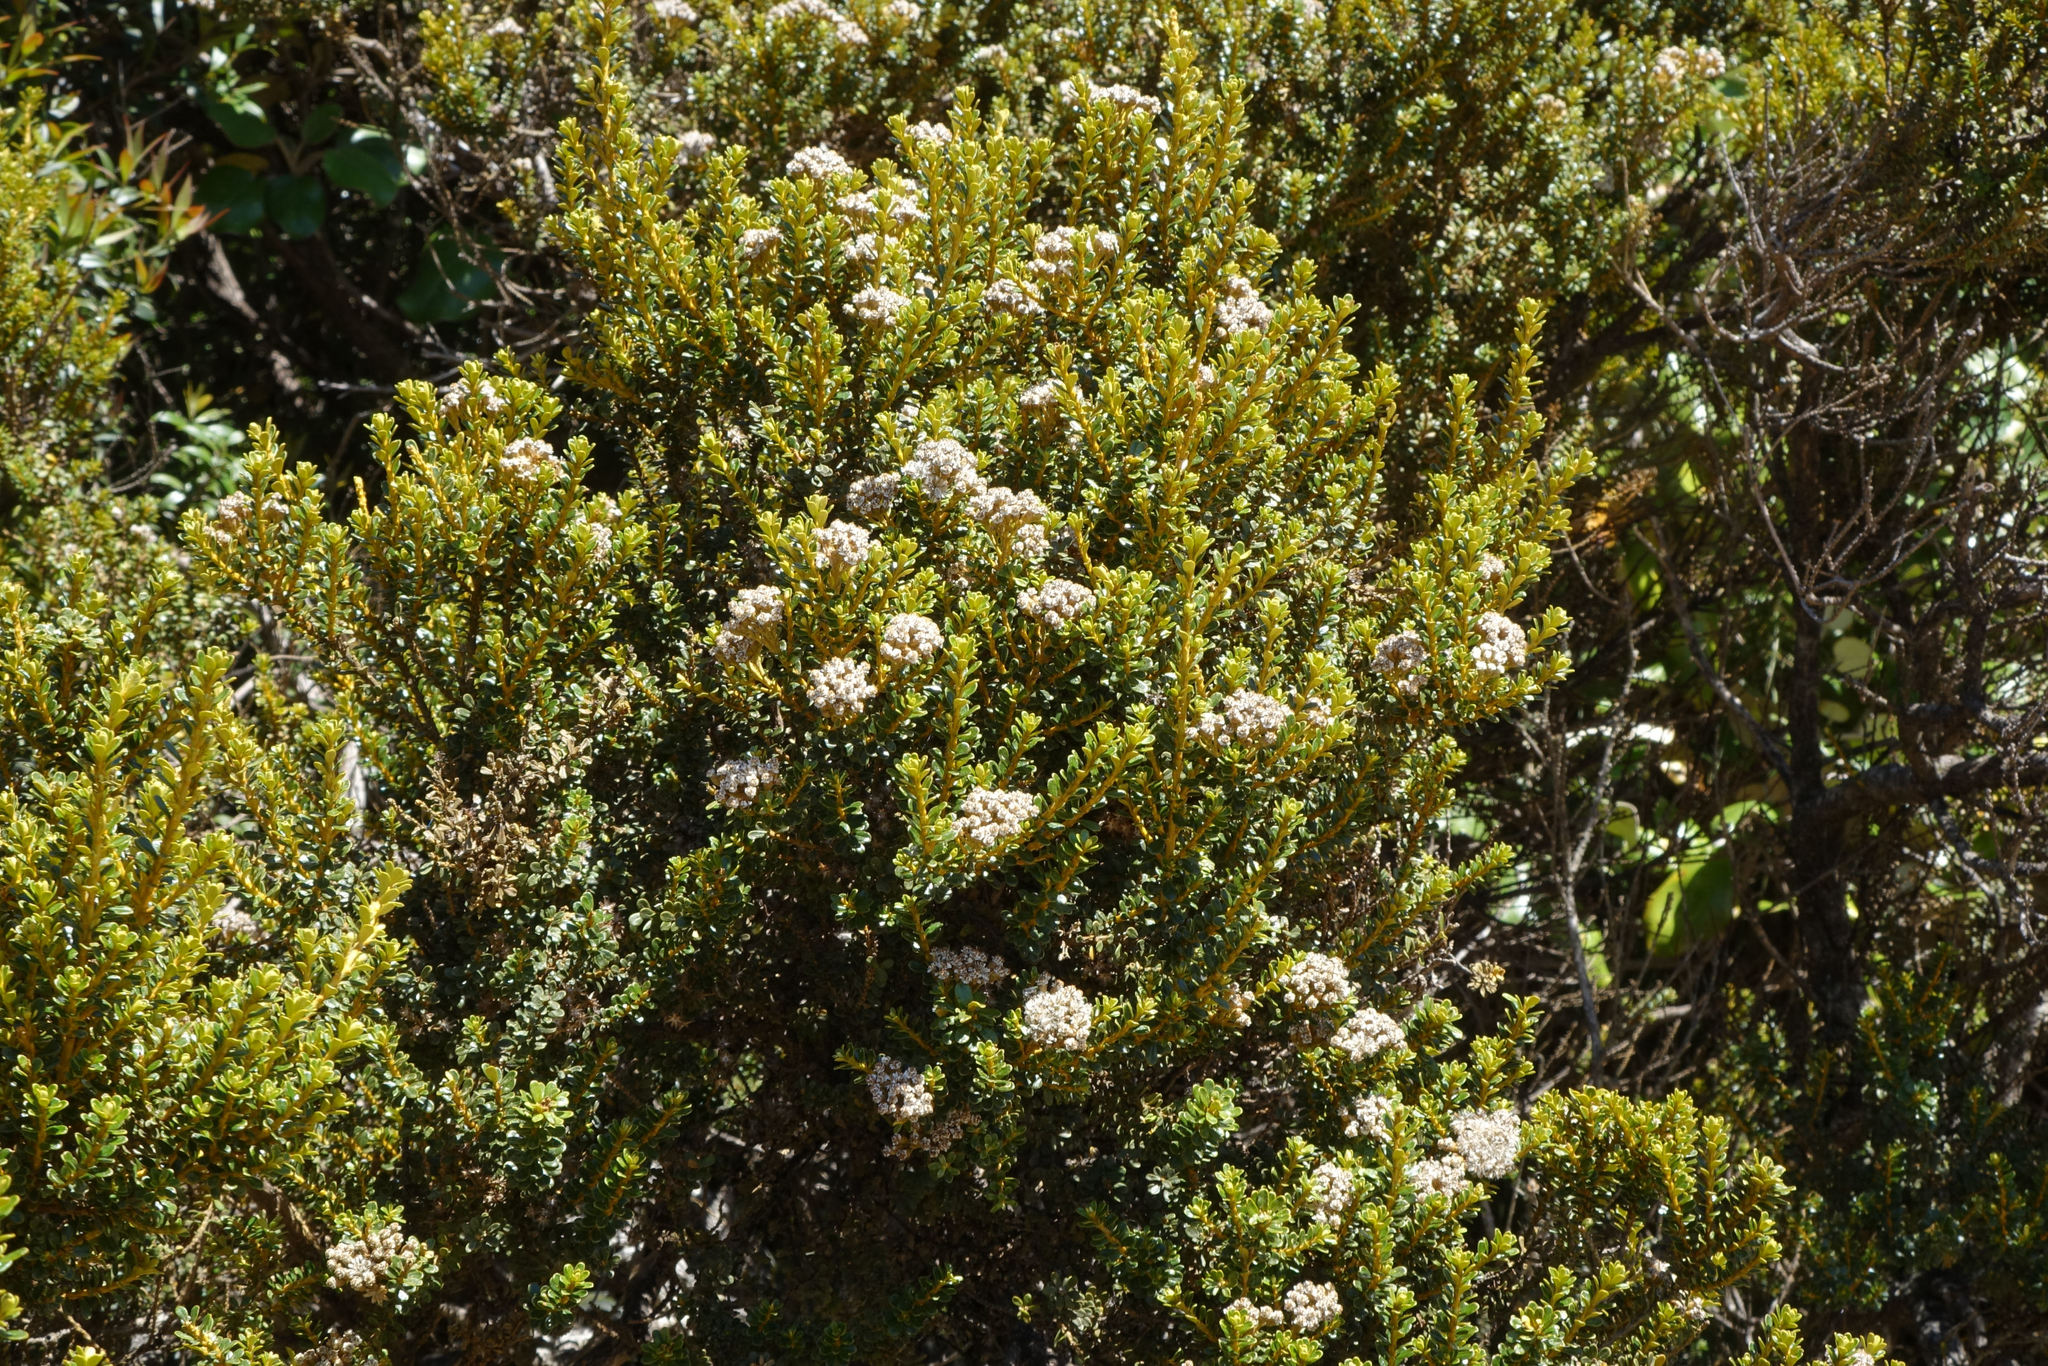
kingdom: Plantae
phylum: Tracheophyta
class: Magnoliopsida
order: Asterales
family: Asteraceae
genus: Ozothamnus
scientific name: Ozothamnus leptophyllus
